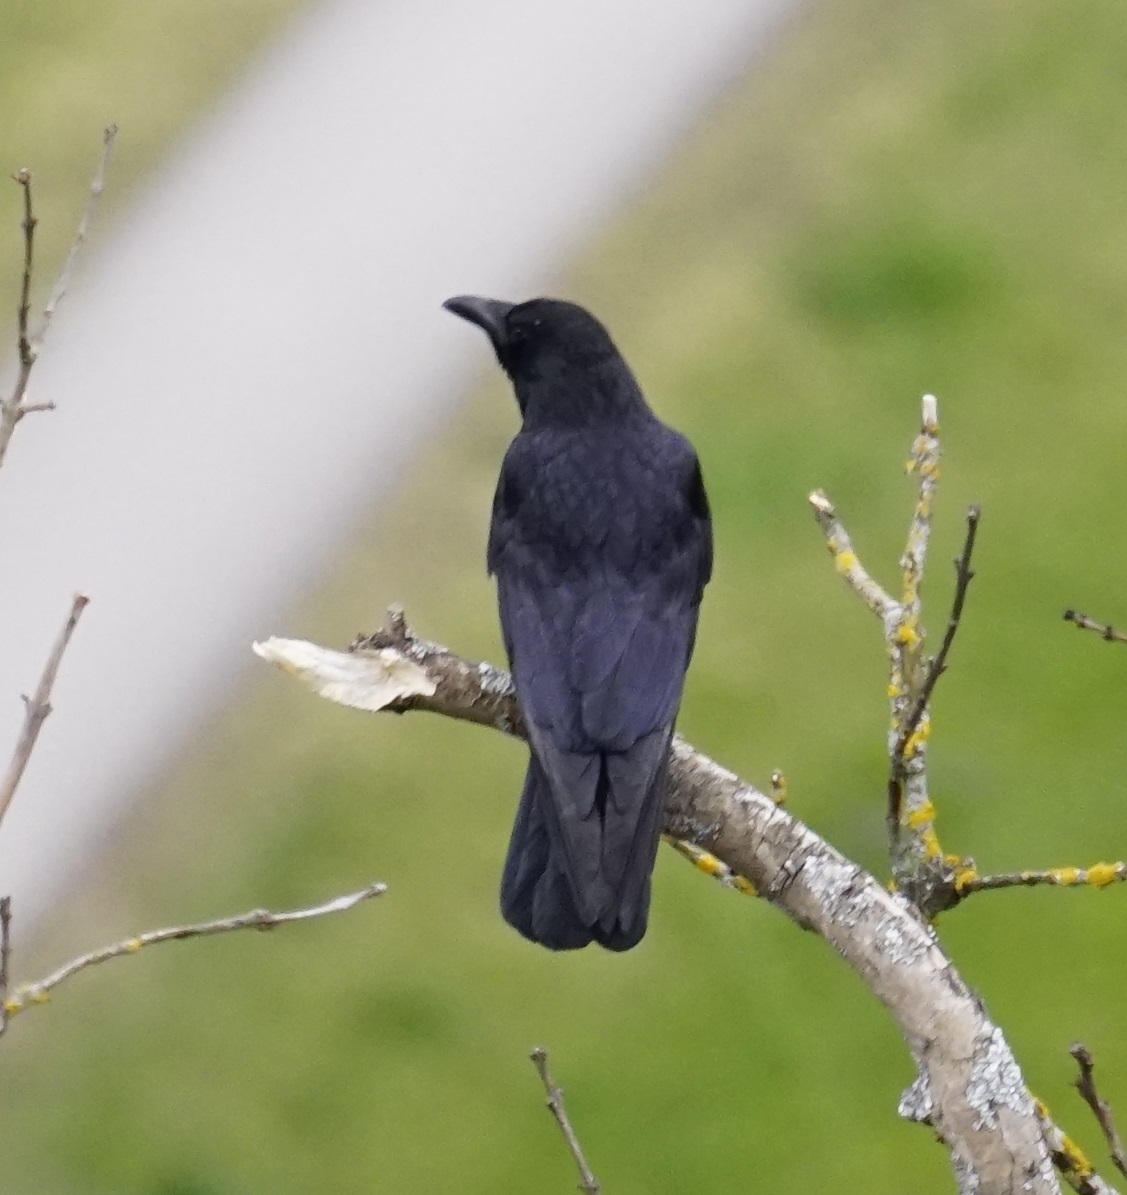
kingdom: Animalia
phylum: Chordata
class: Aves
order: Passeriformes
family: Corvidae
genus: Corvus
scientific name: Corvus corone
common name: Carrion crow
